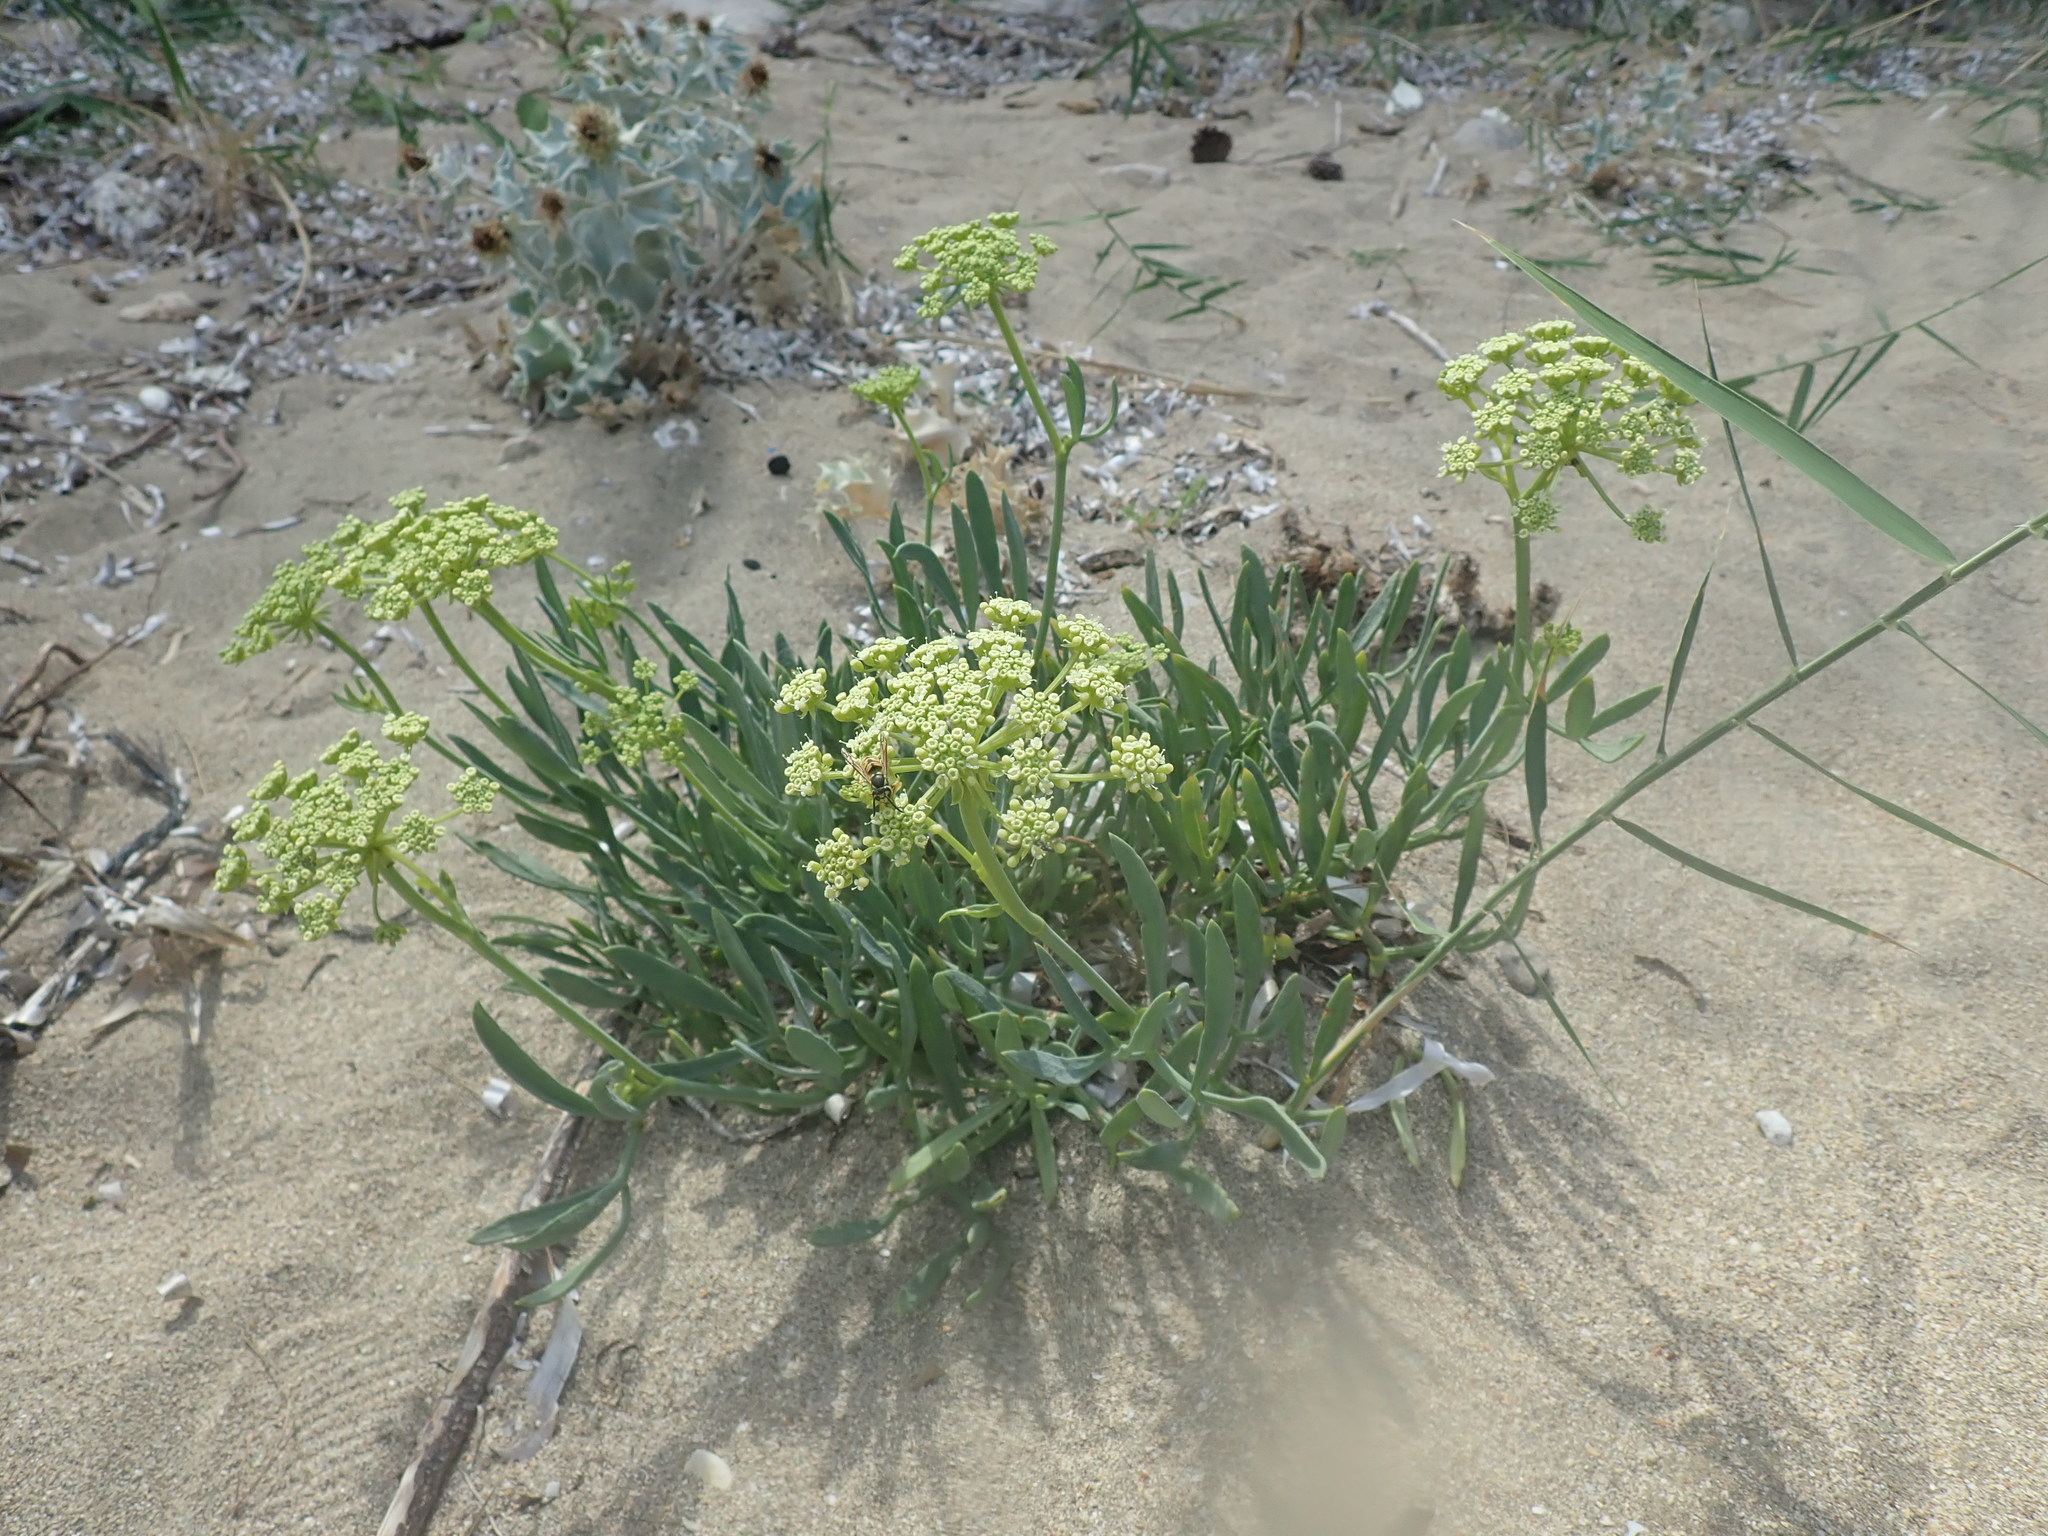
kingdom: Plantae
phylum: Tracheophyta
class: Magnoliopsida
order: Apiales
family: Apiaceae
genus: Crithmum
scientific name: Crithmum maritimum
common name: Rock samphire
